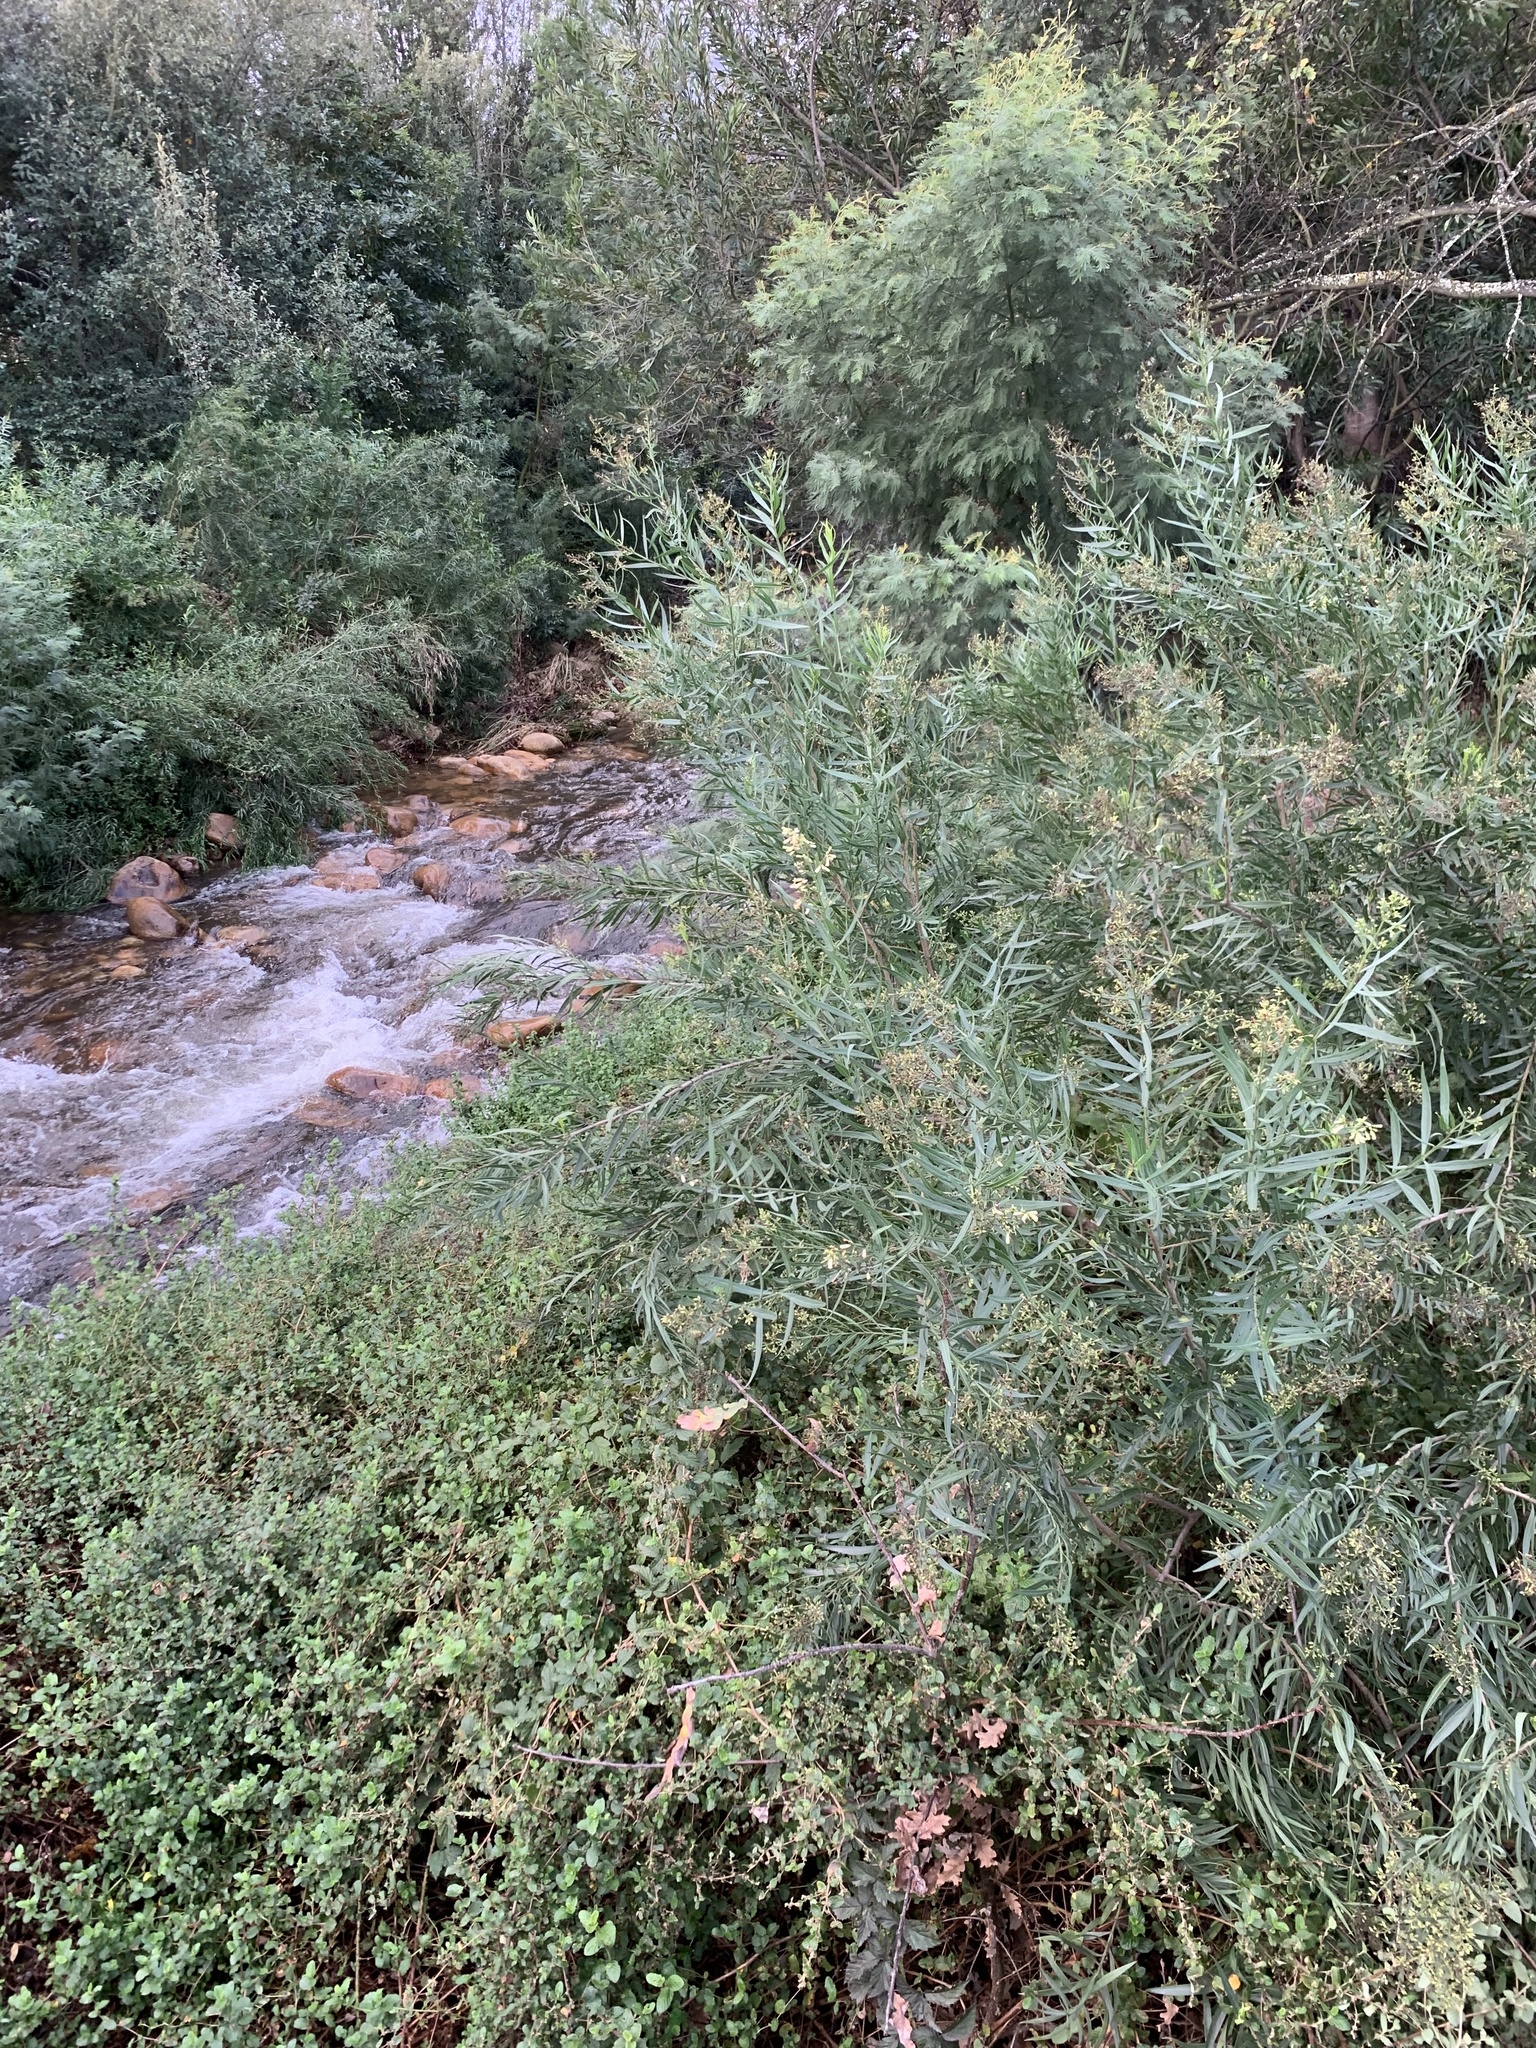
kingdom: Plantae
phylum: Tracheophyta
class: Magnoliopsida
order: Lamiales
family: Scrophulariaceae
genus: Freylinia
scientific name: Freylinia lanceolata
